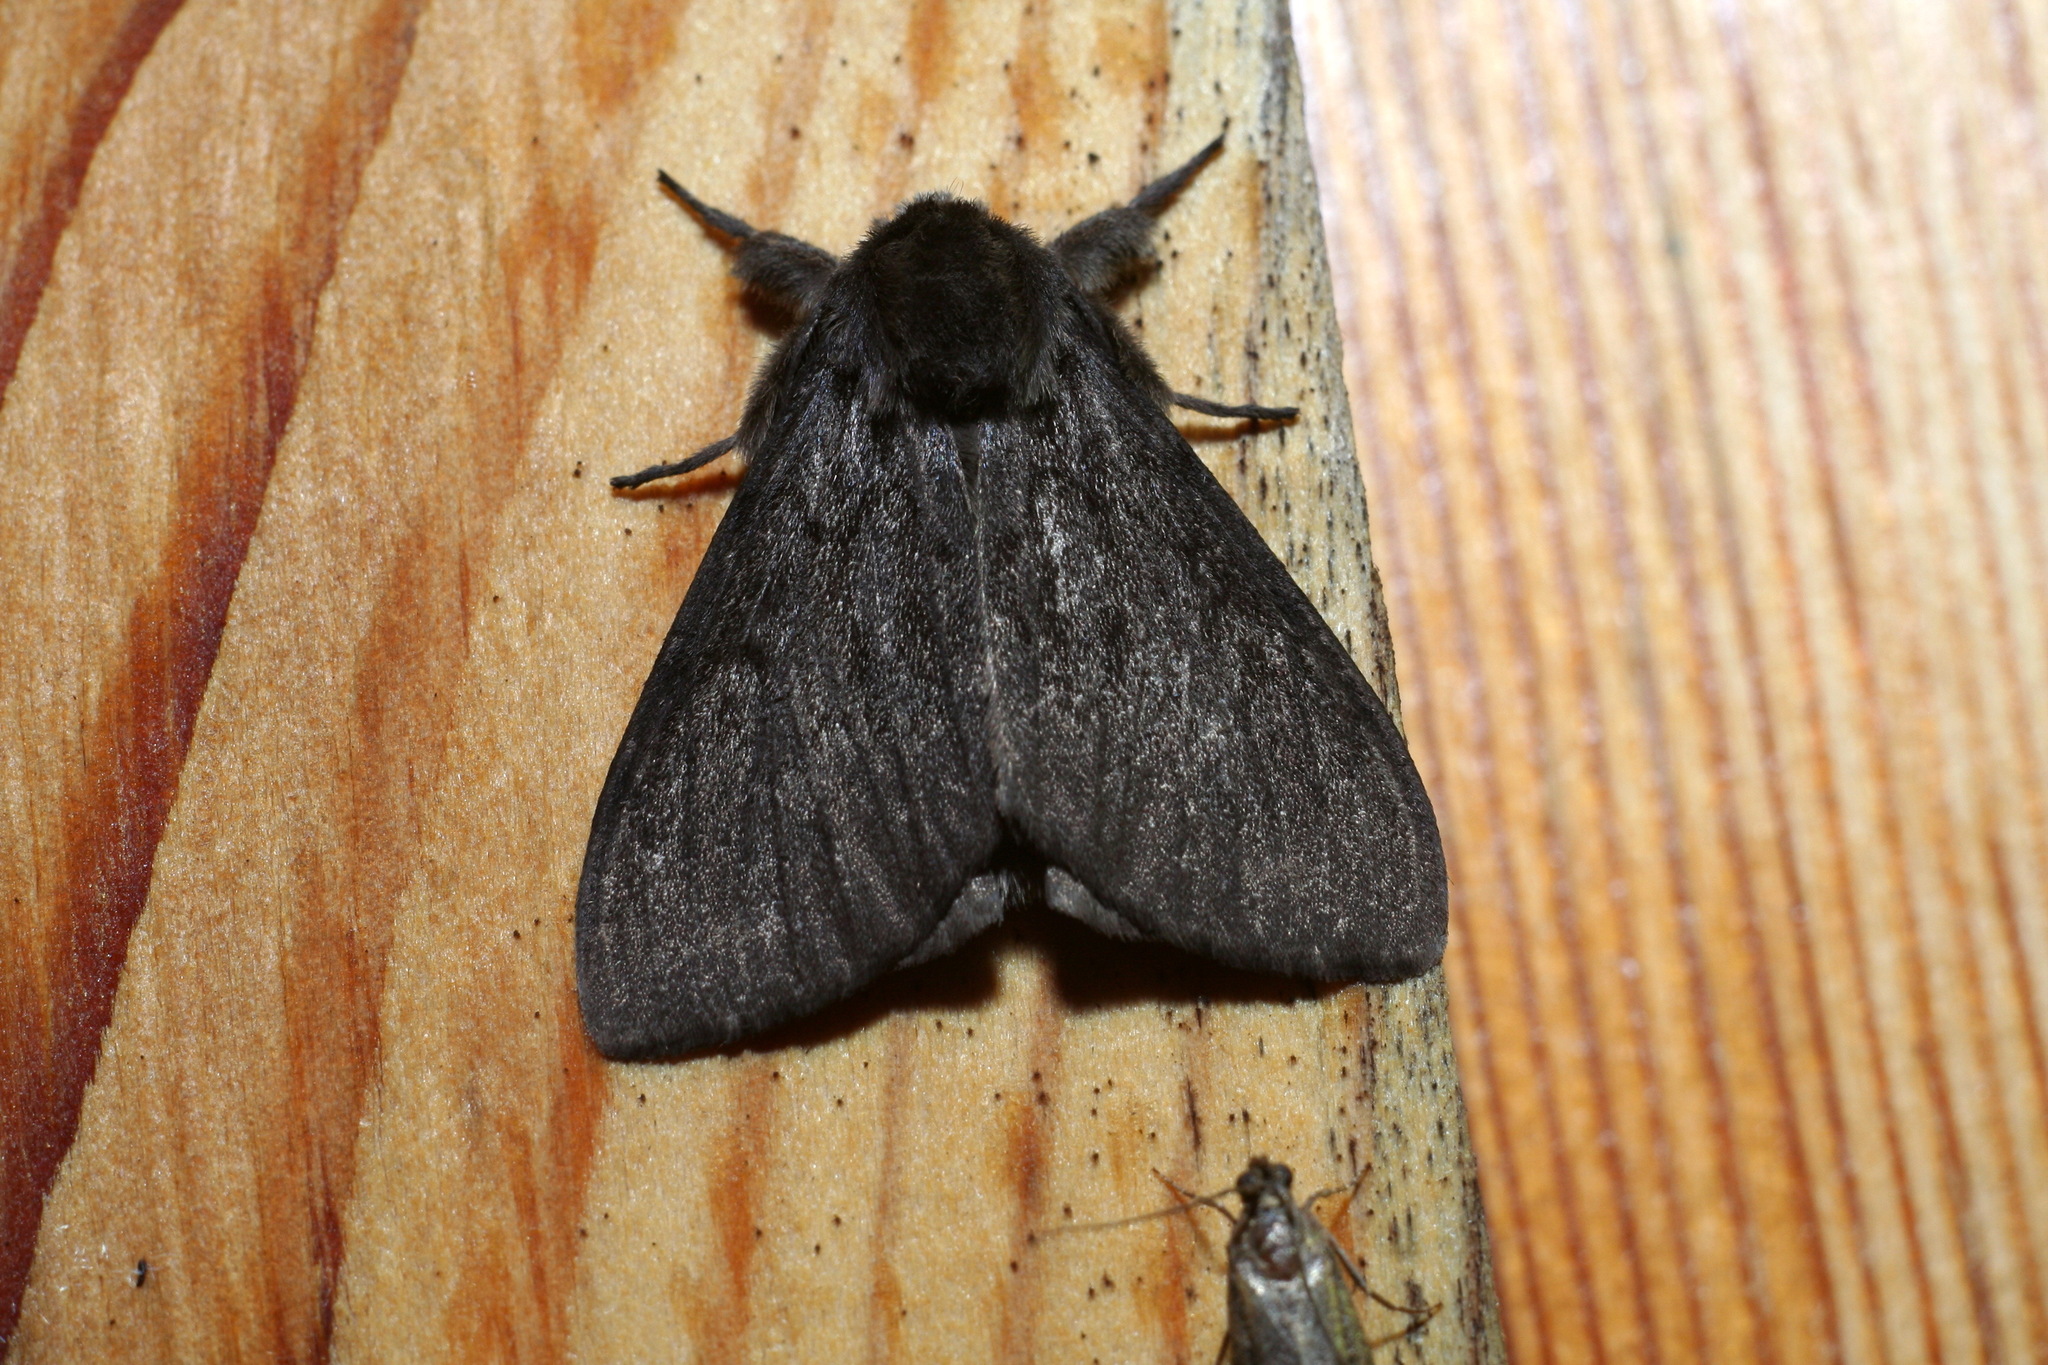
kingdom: Animalia
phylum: Arthropoda
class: Insecta
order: Lepidoptera
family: Erebidae
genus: Lymantria
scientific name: Lymantria monacha
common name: Black arches
